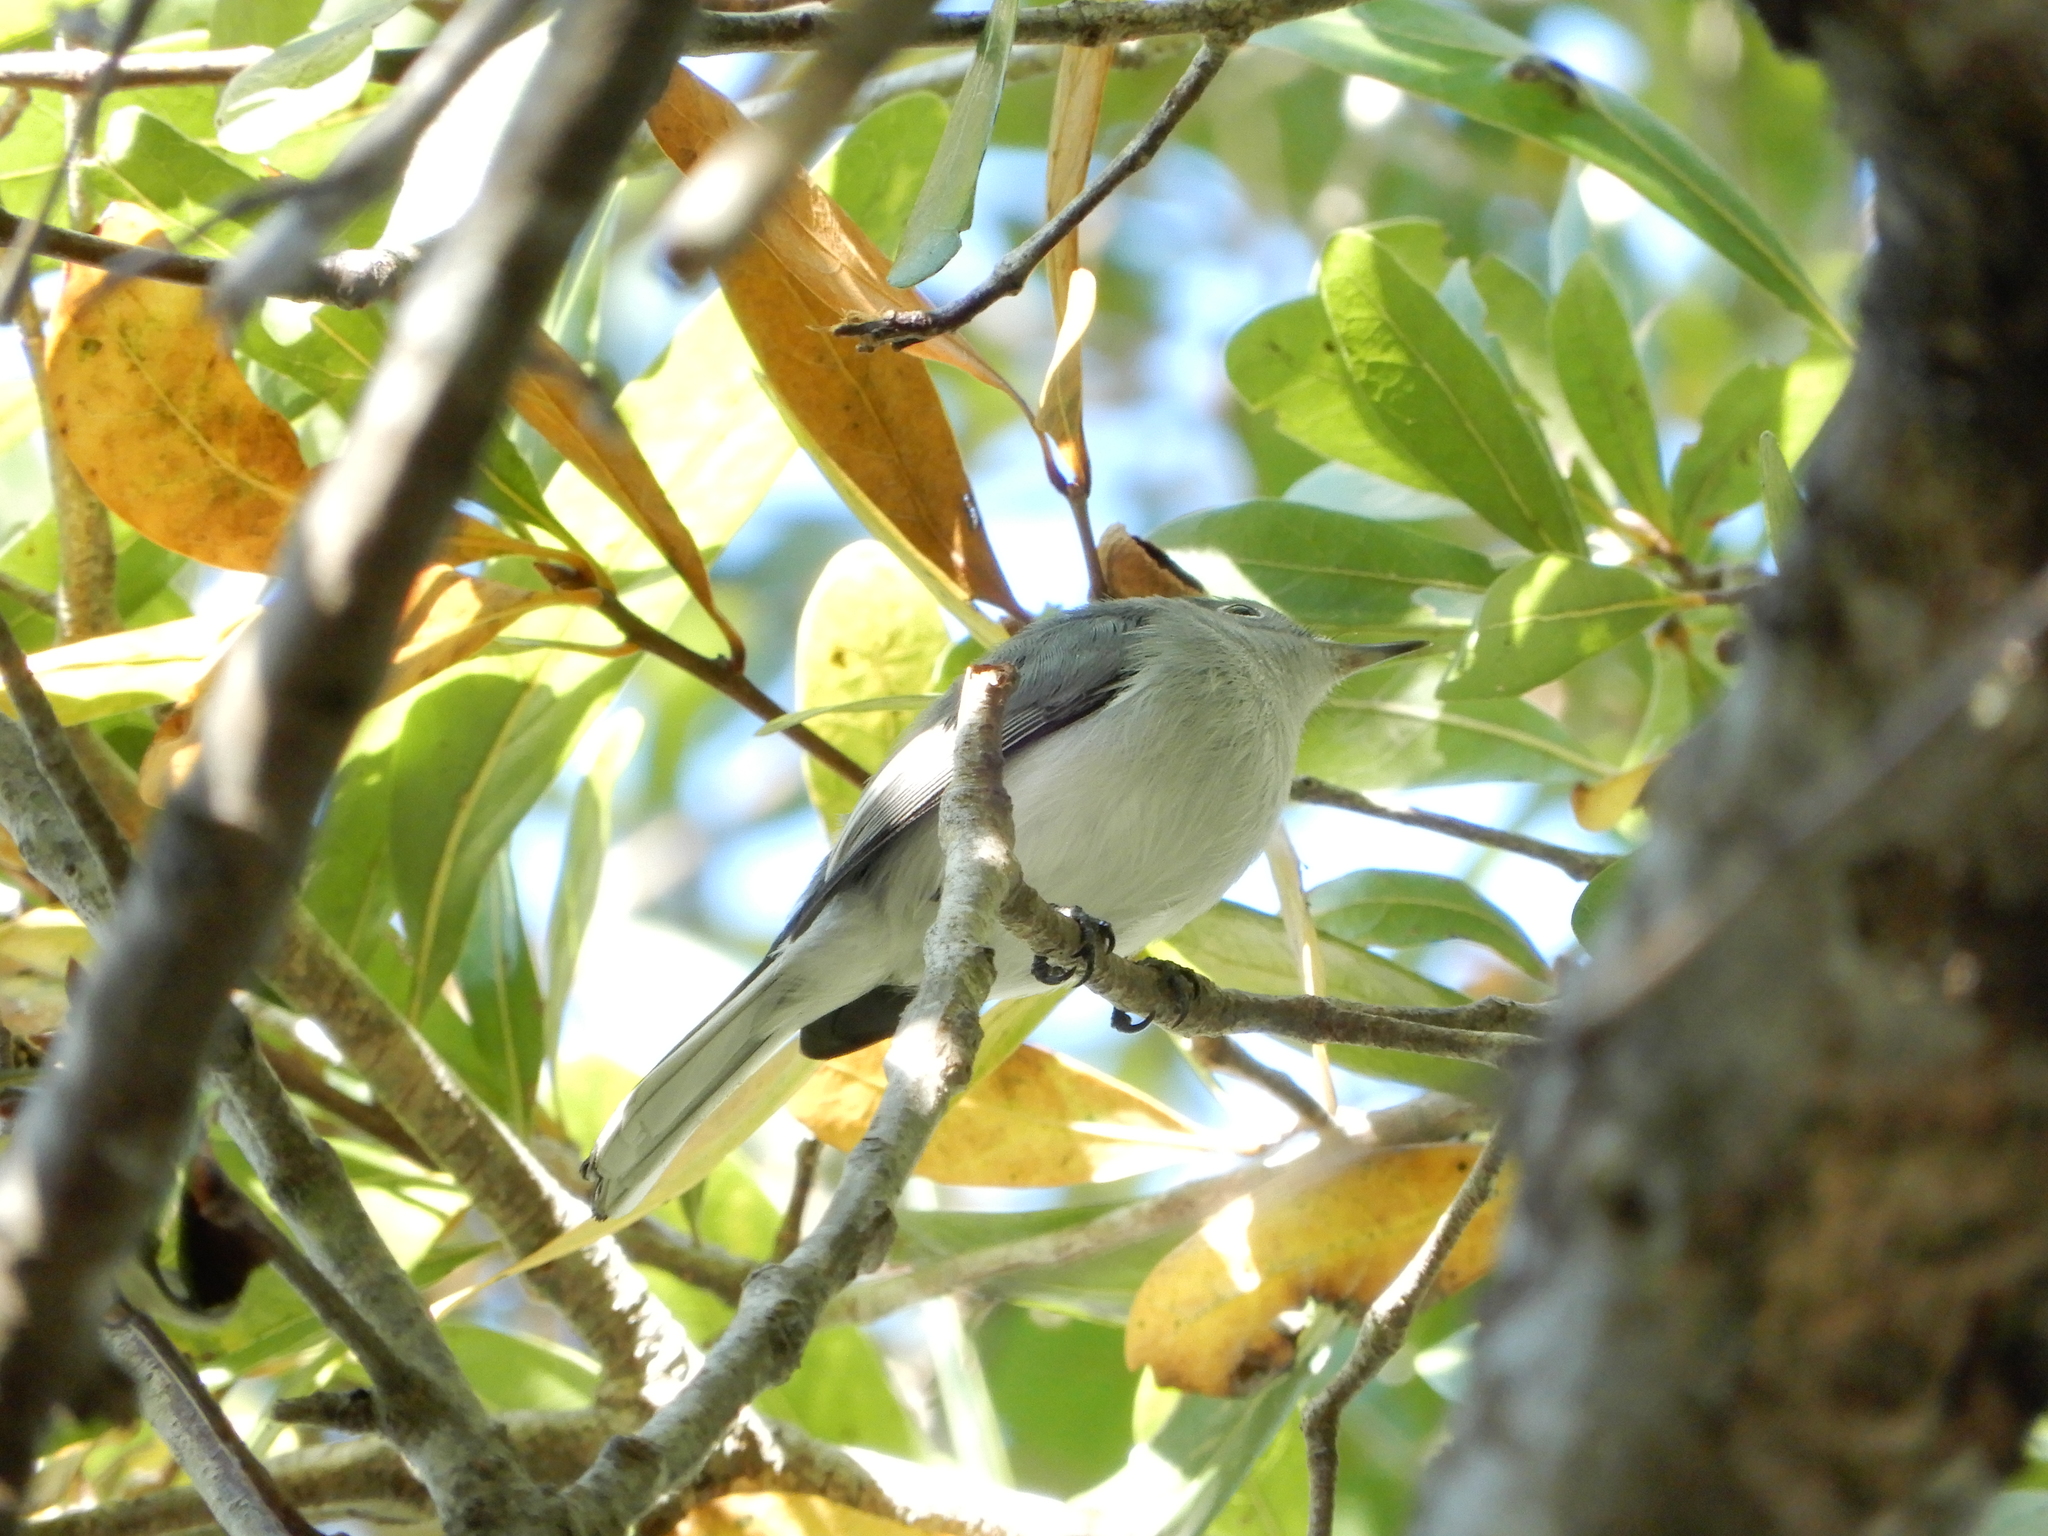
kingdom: Animalia
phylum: Chordata
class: Aves
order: Passeriformes
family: Polioptilidae
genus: Polioptila
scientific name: Polioptila caerulea
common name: Blue-gray gnatcatcher
